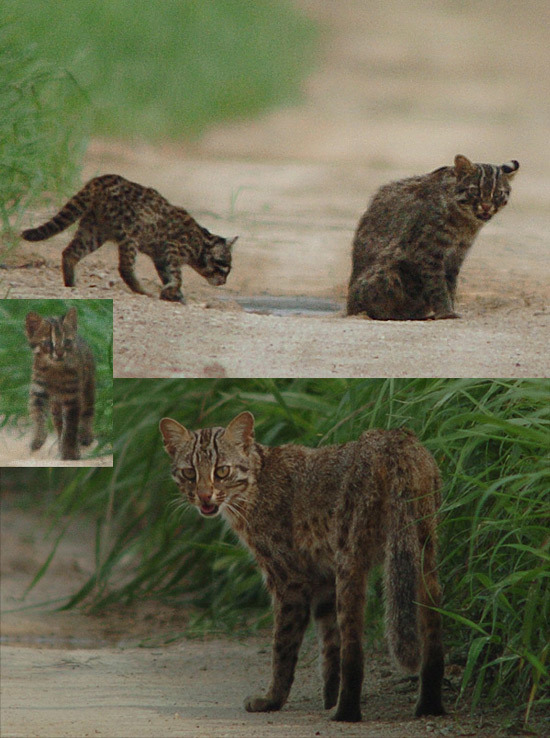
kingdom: Animalia
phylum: Chordata
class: Mammalia
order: Carnivora
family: Felidae
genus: Prionailurus
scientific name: Prionailurus bengalensis
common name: Leopard cat
